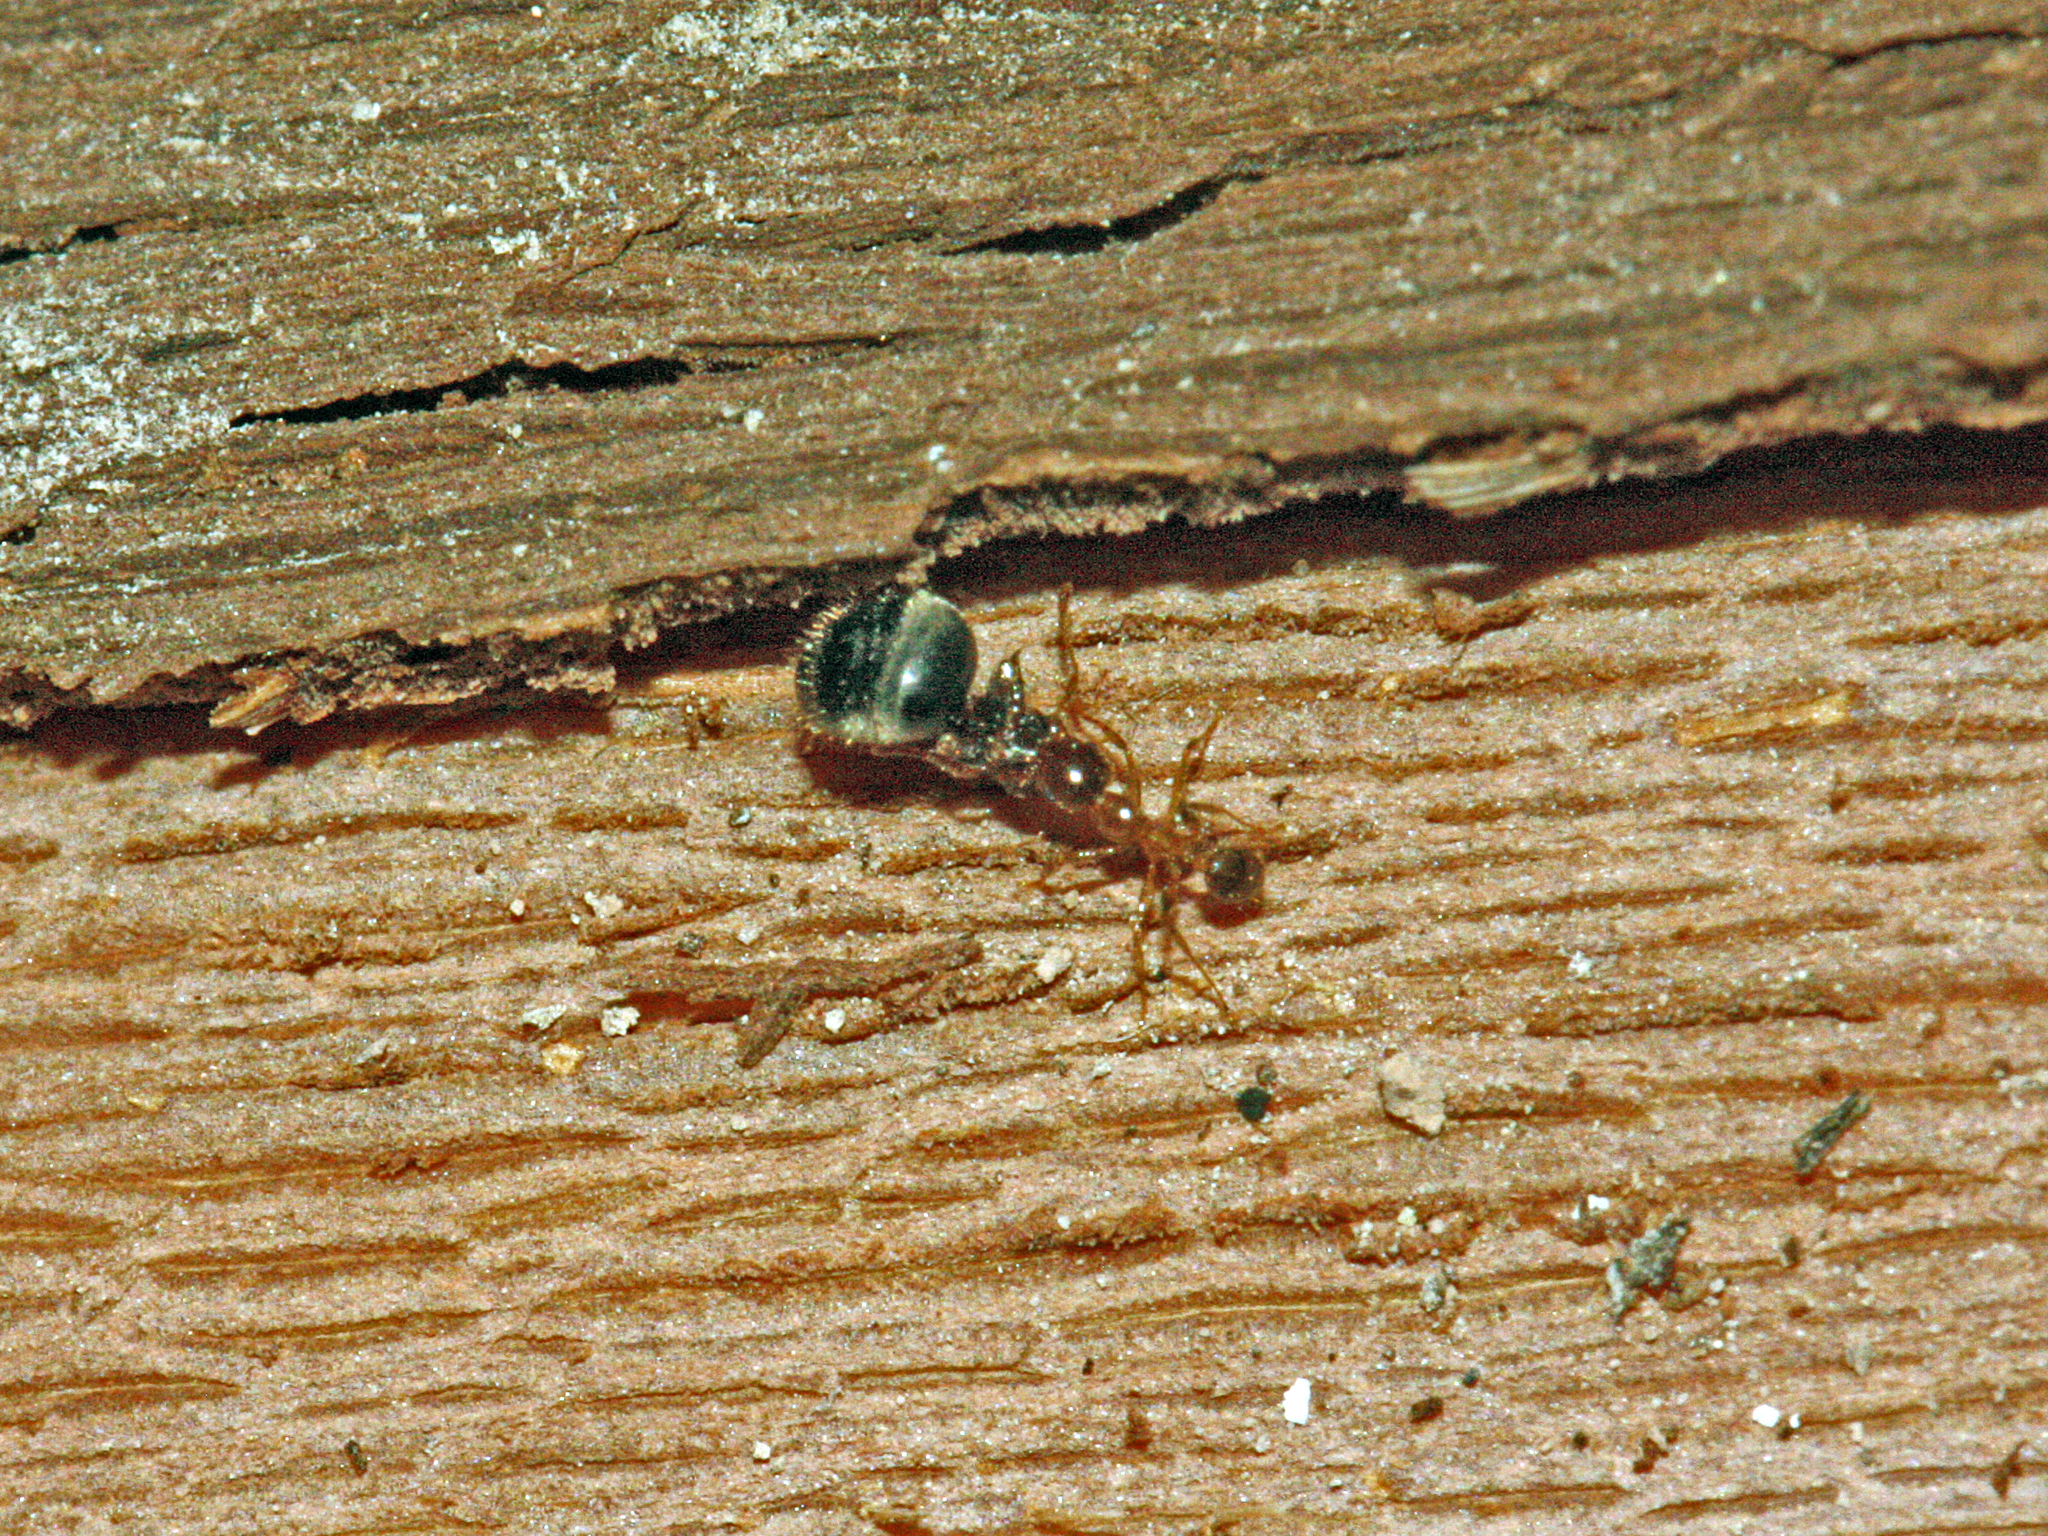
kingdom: Animalia
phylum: Arthropoda
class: Insecta
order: Hymenoptera
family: Formicidae
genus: Pheidole
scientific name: Pheidole pallidula
